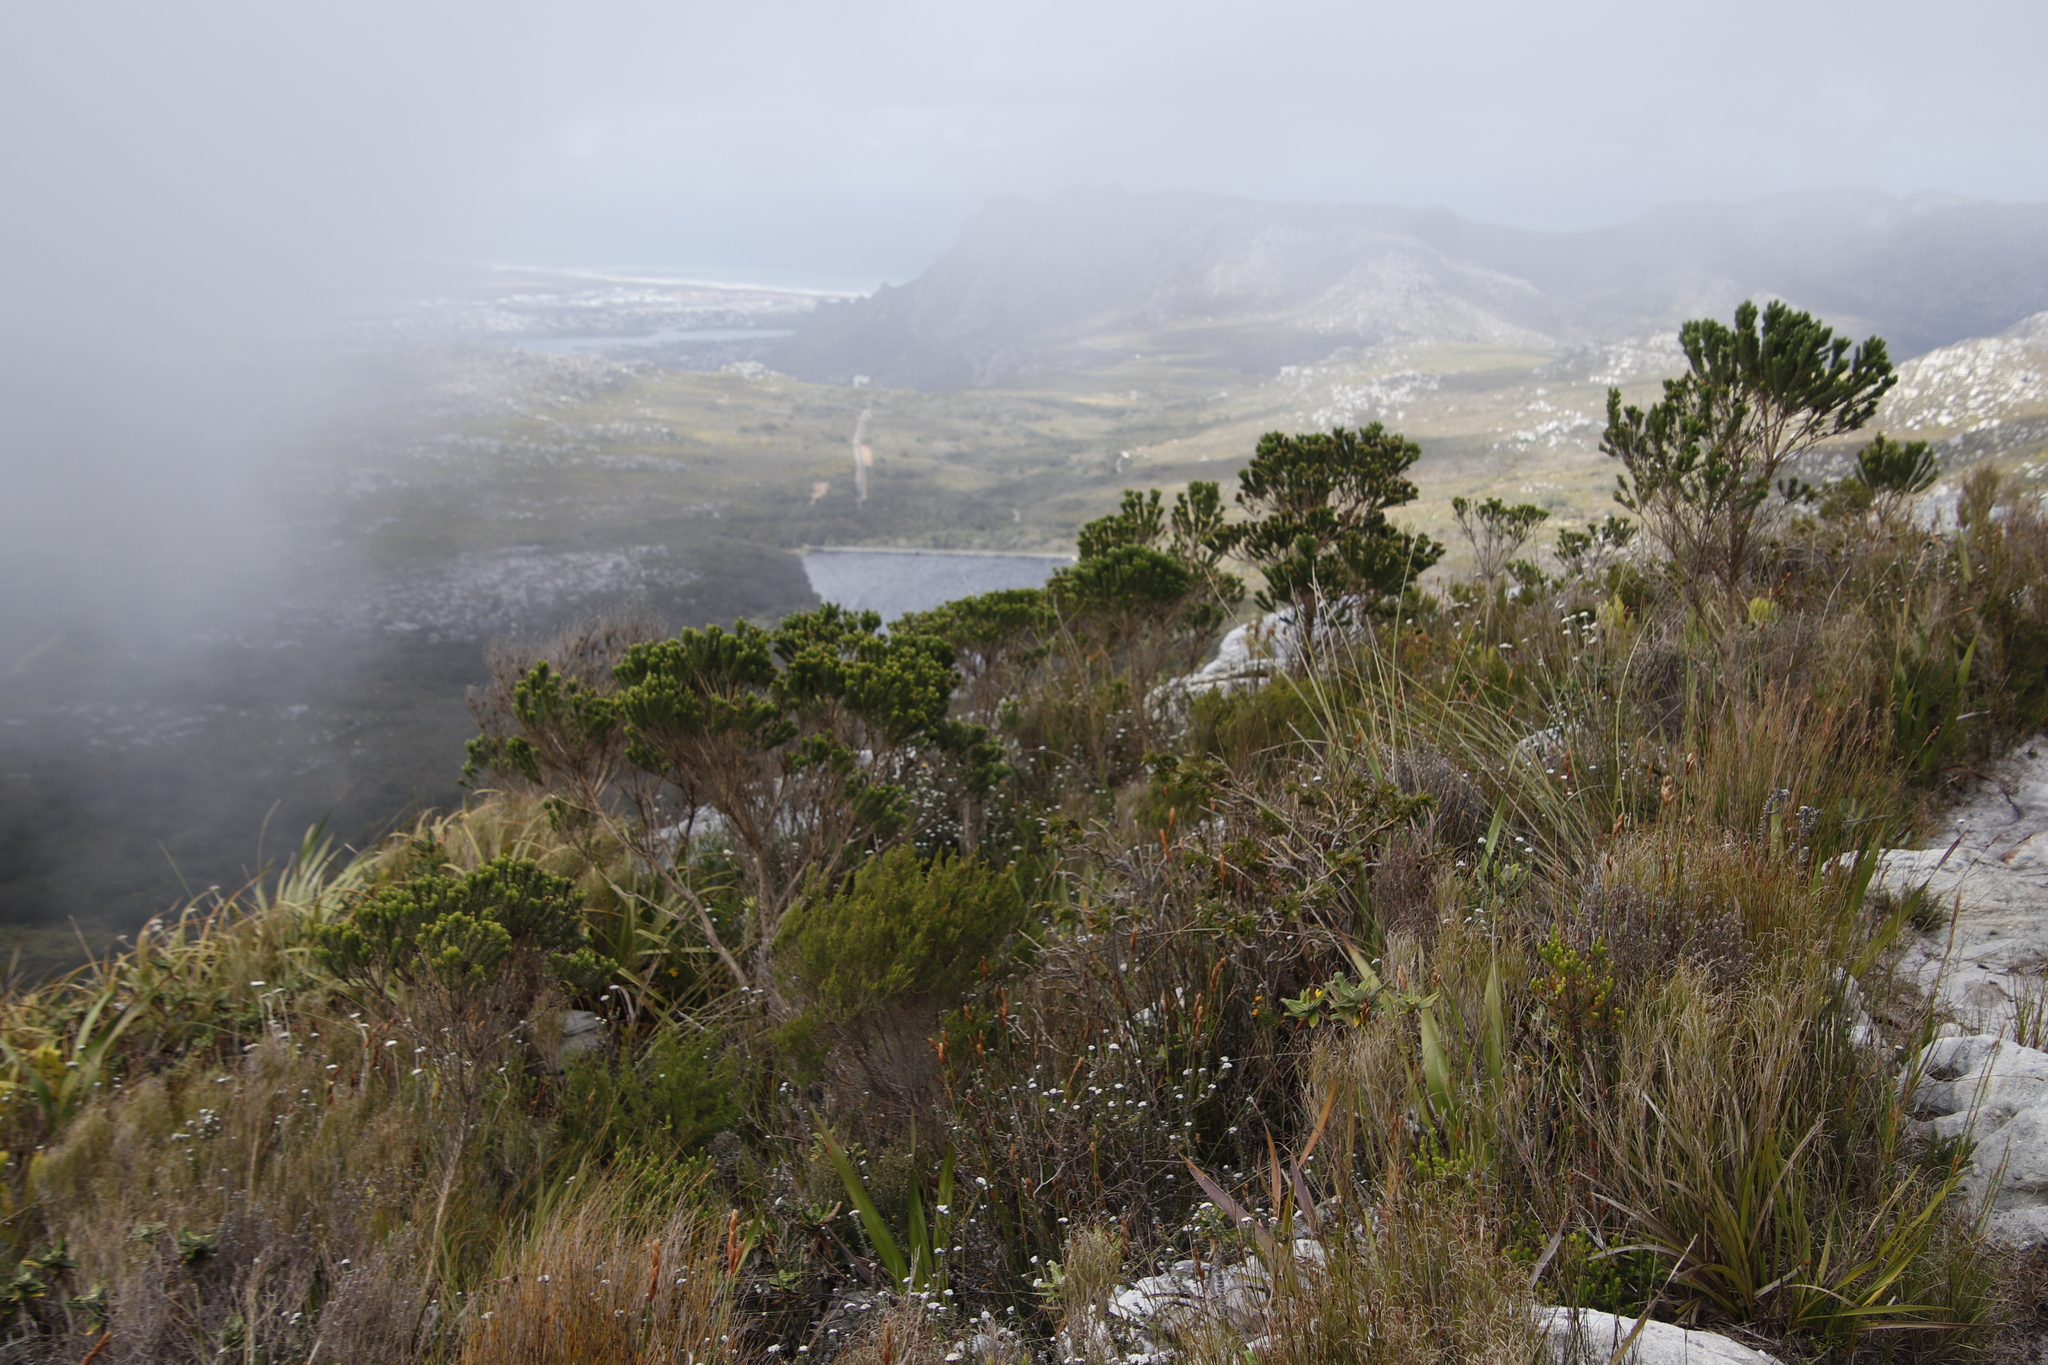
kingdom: Plantae
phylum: Tracheophyta
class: Magnoliopsida
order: Fabales
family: Fabaceae
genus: Aspalathus
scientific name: Aspalathus capitata
